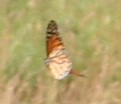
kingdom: Animalia
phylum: Arthropoda
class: Insecta
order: Lepidoptera
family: Nymphalidae
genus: Danaus
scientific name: Danaus plexippus
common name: Monarch
